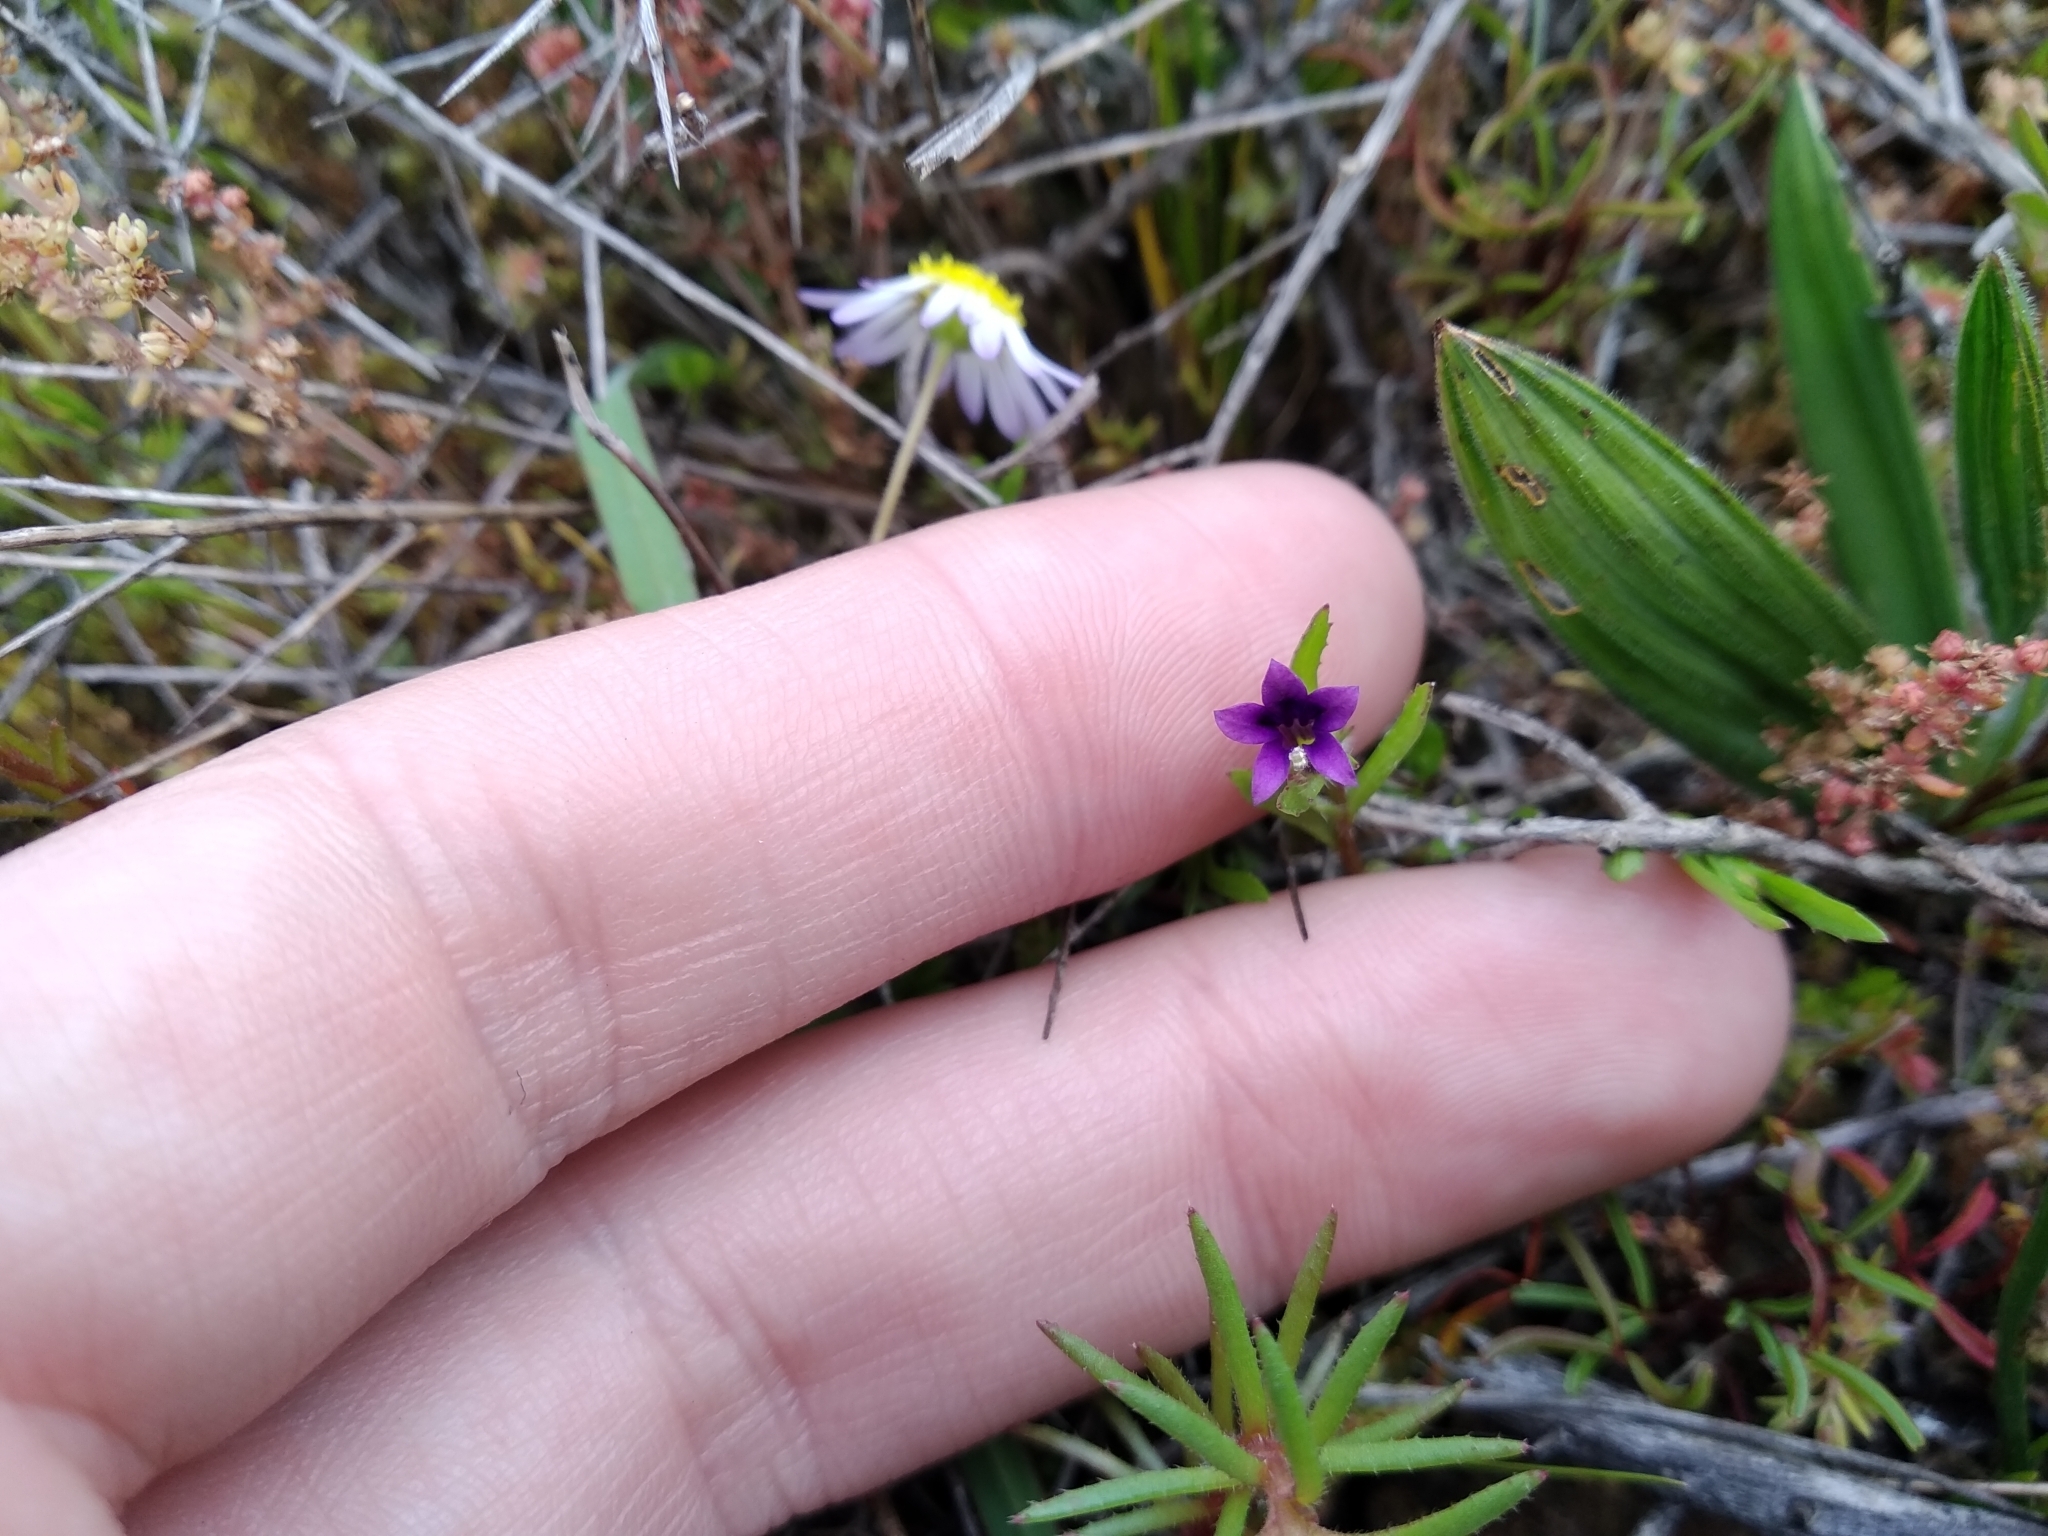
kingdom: Plantae
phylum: Tracheophyta
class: Magnoliopsida
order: Asterales
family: Campanulaceae
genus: Monopsis
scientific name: Monopsis debilis
